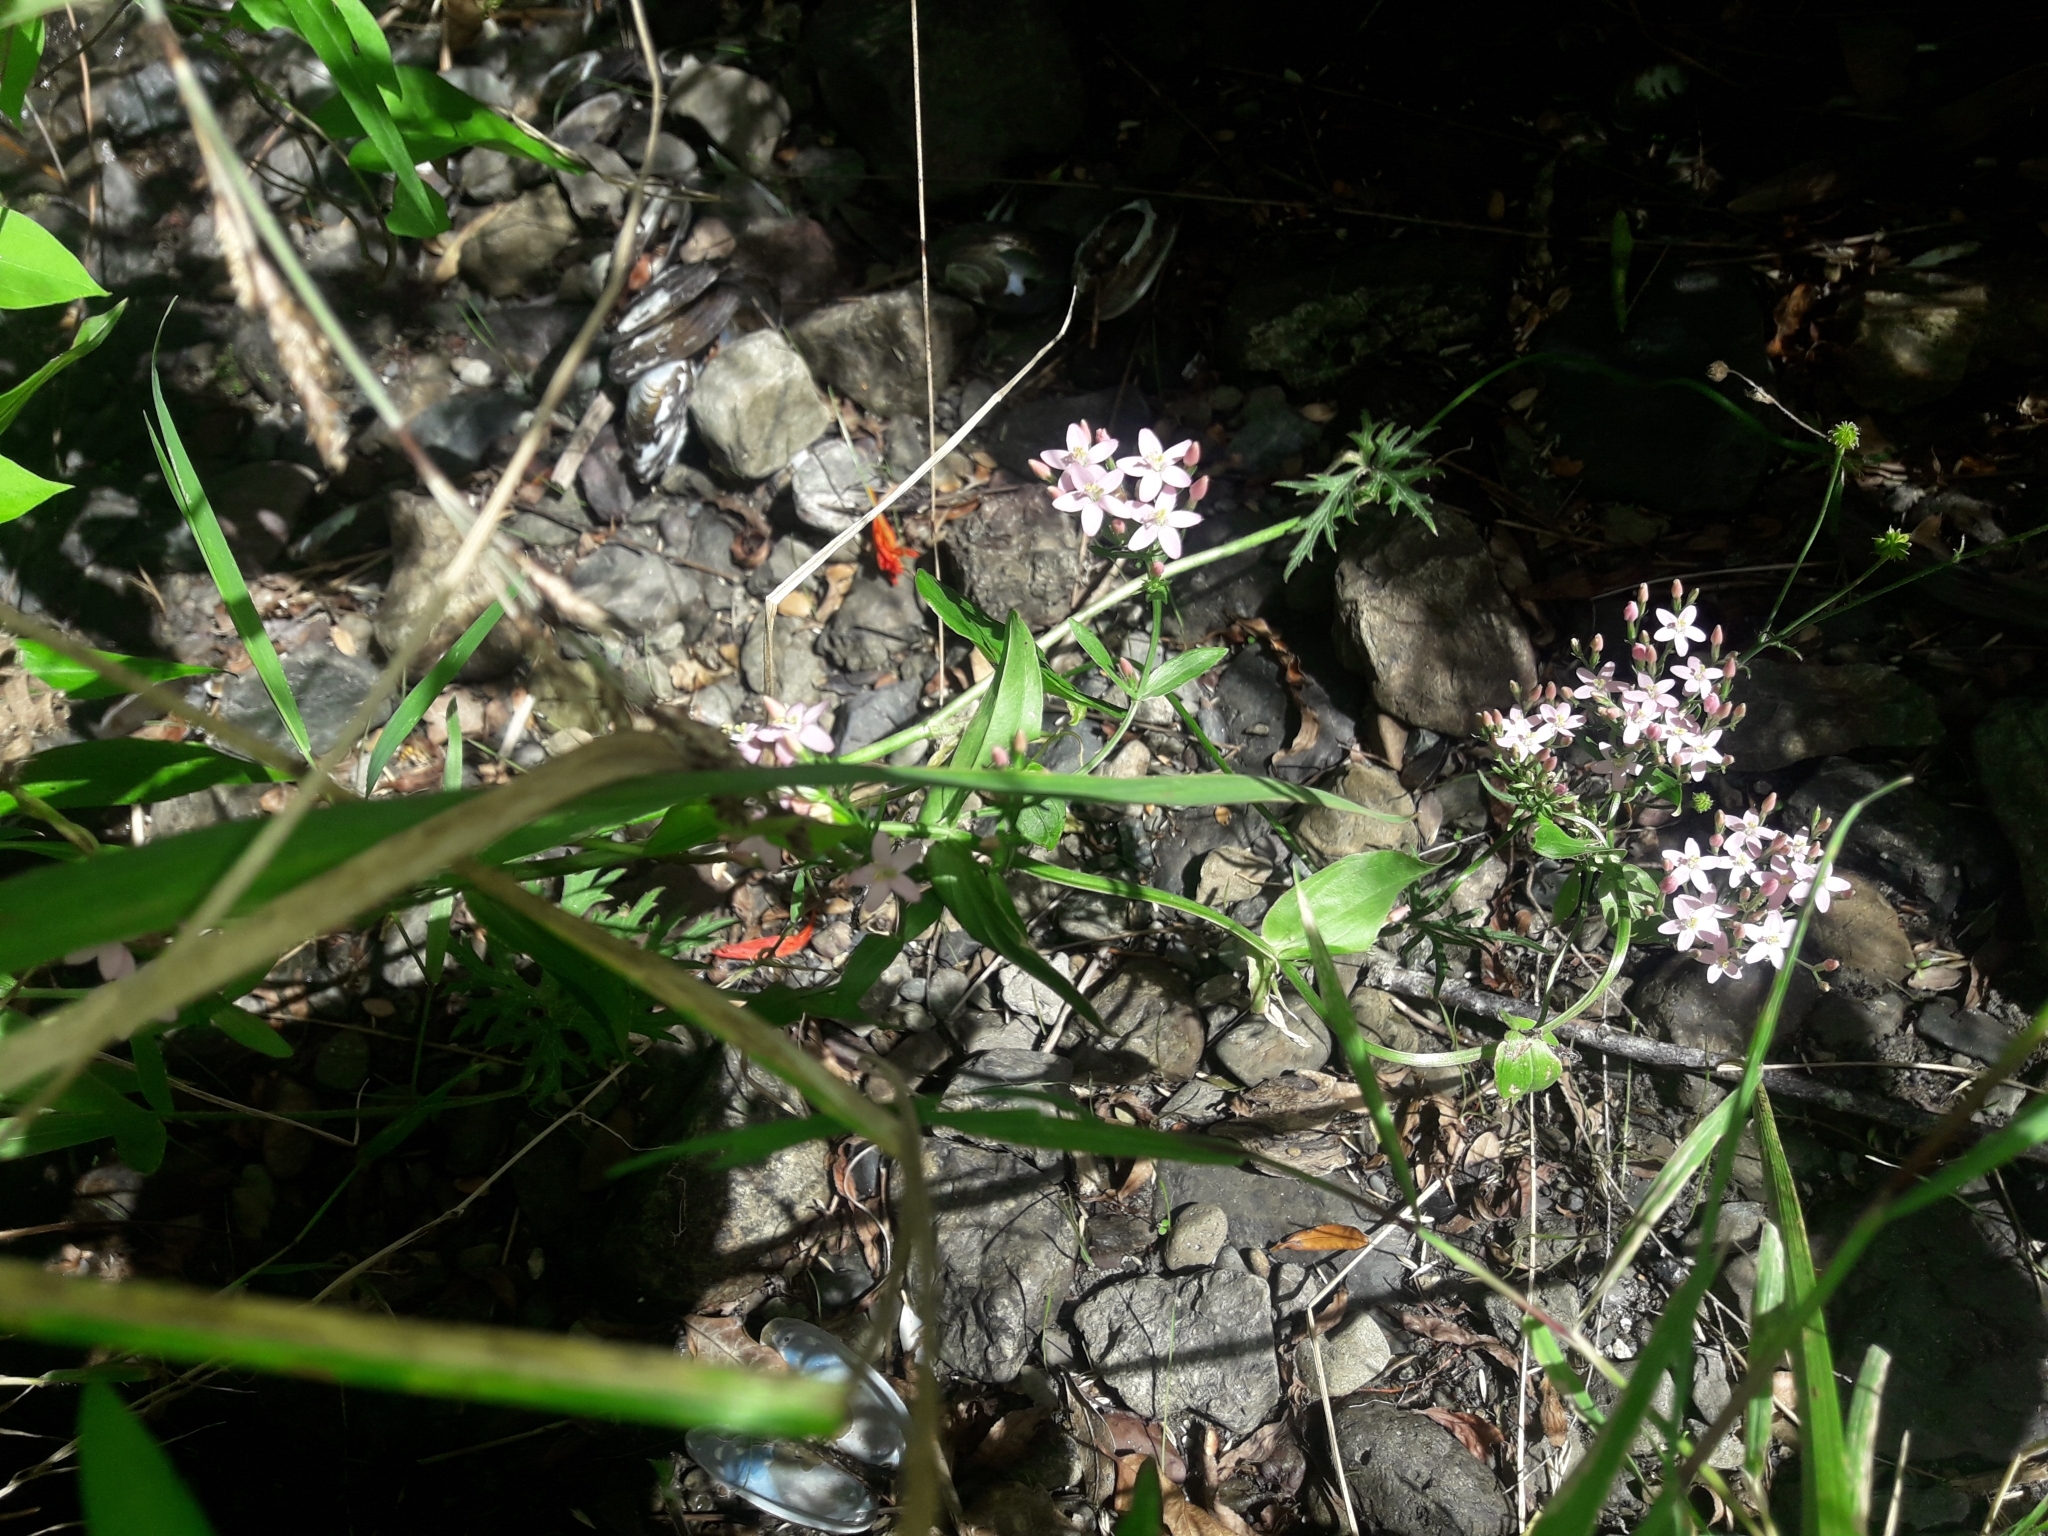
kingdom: Plantae
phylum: Tracheophyta
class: Magnoliopsida
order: Gentianales
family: Gentianaceae
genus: Centaurium
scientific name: Centaurium erythraea
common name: Common centaury
